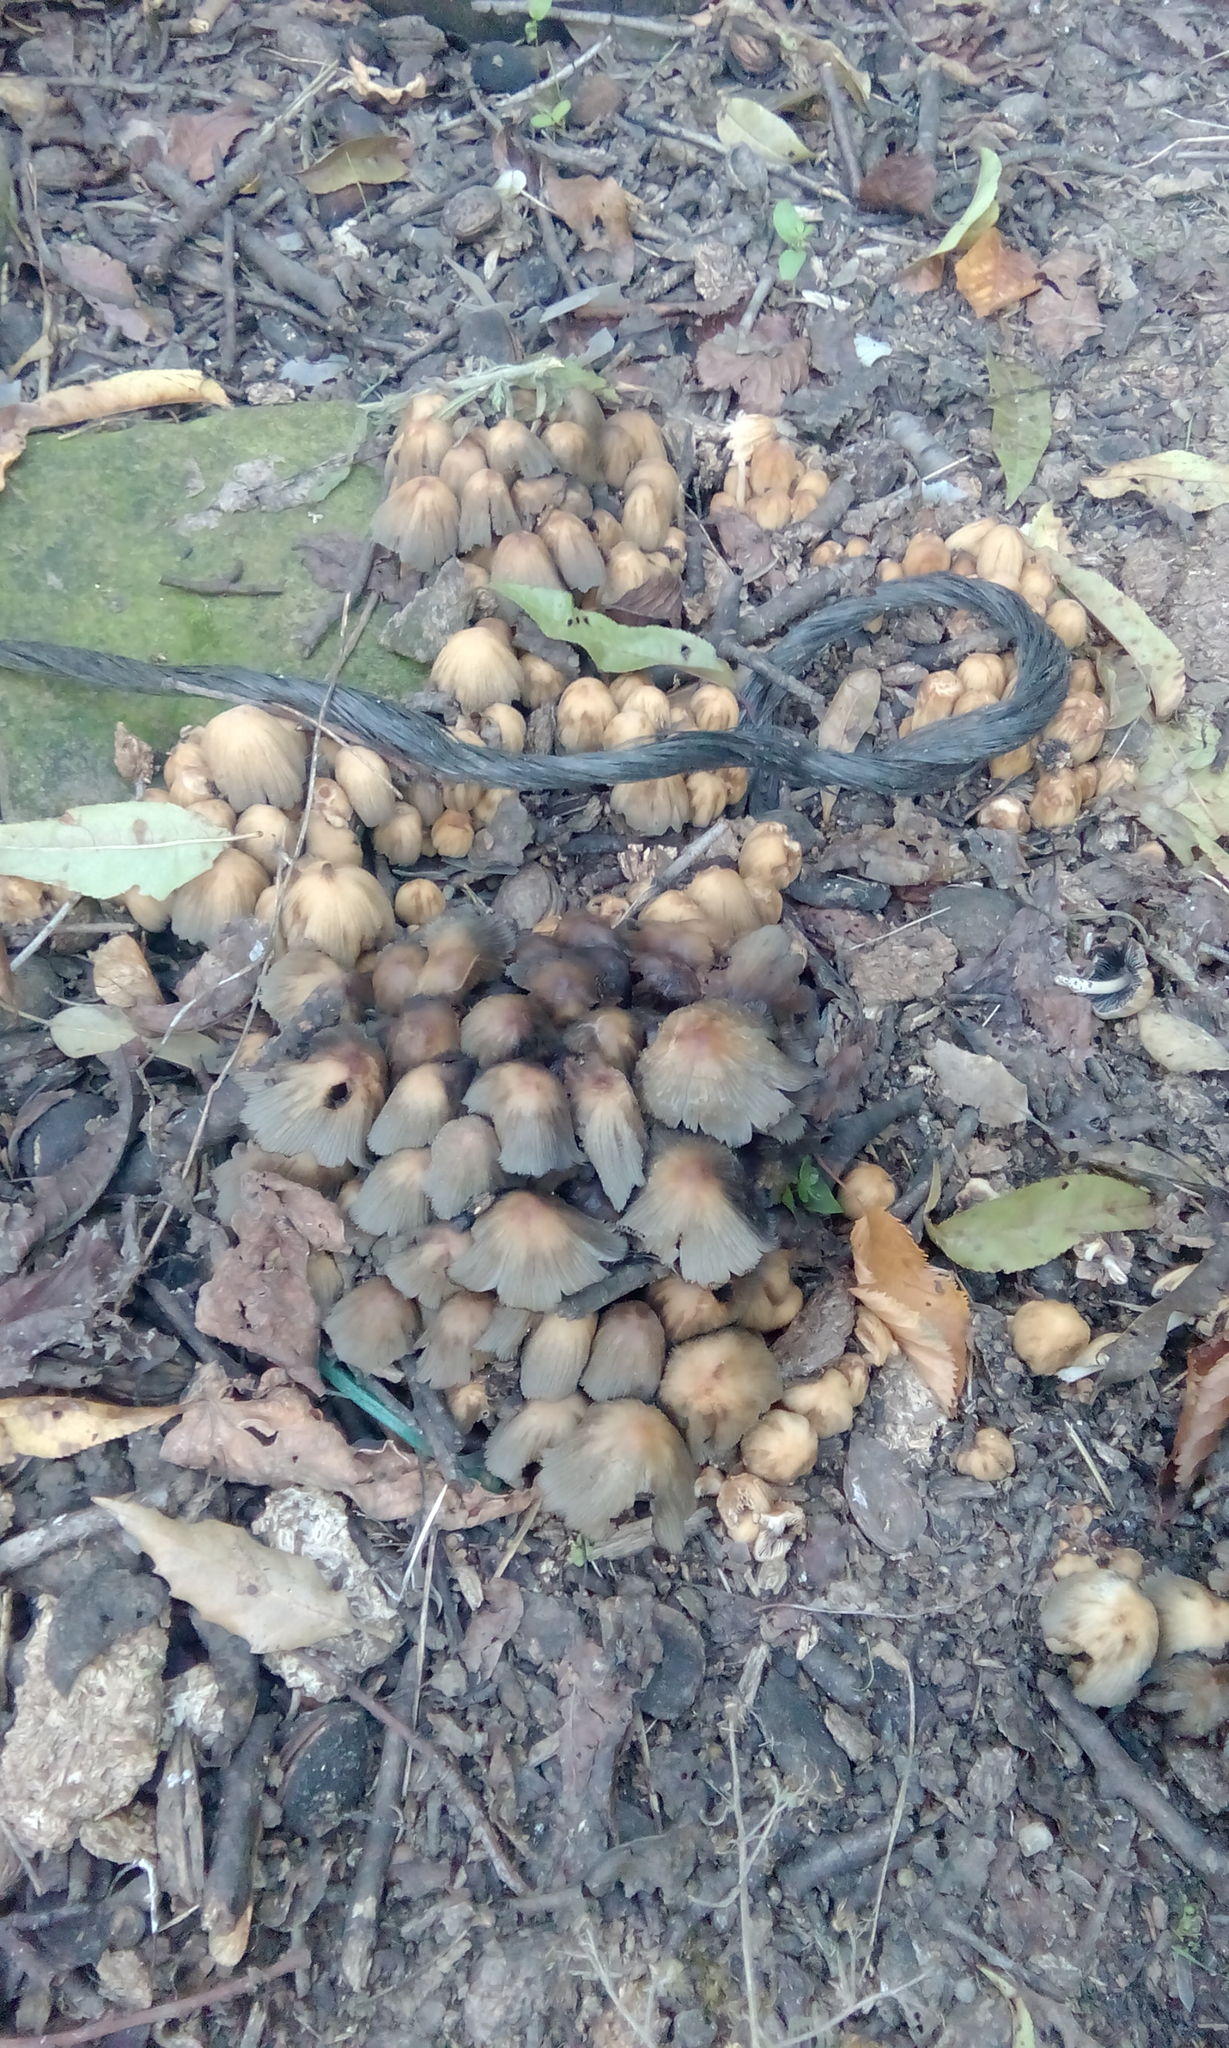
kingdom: Fungi
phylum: Basidiomycota
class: Agaricomycetes
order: Agaricales
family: Psathyrellaceae
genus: Coprinellus
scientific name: Coprinellus micaceus
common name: Glistening ink-cap
